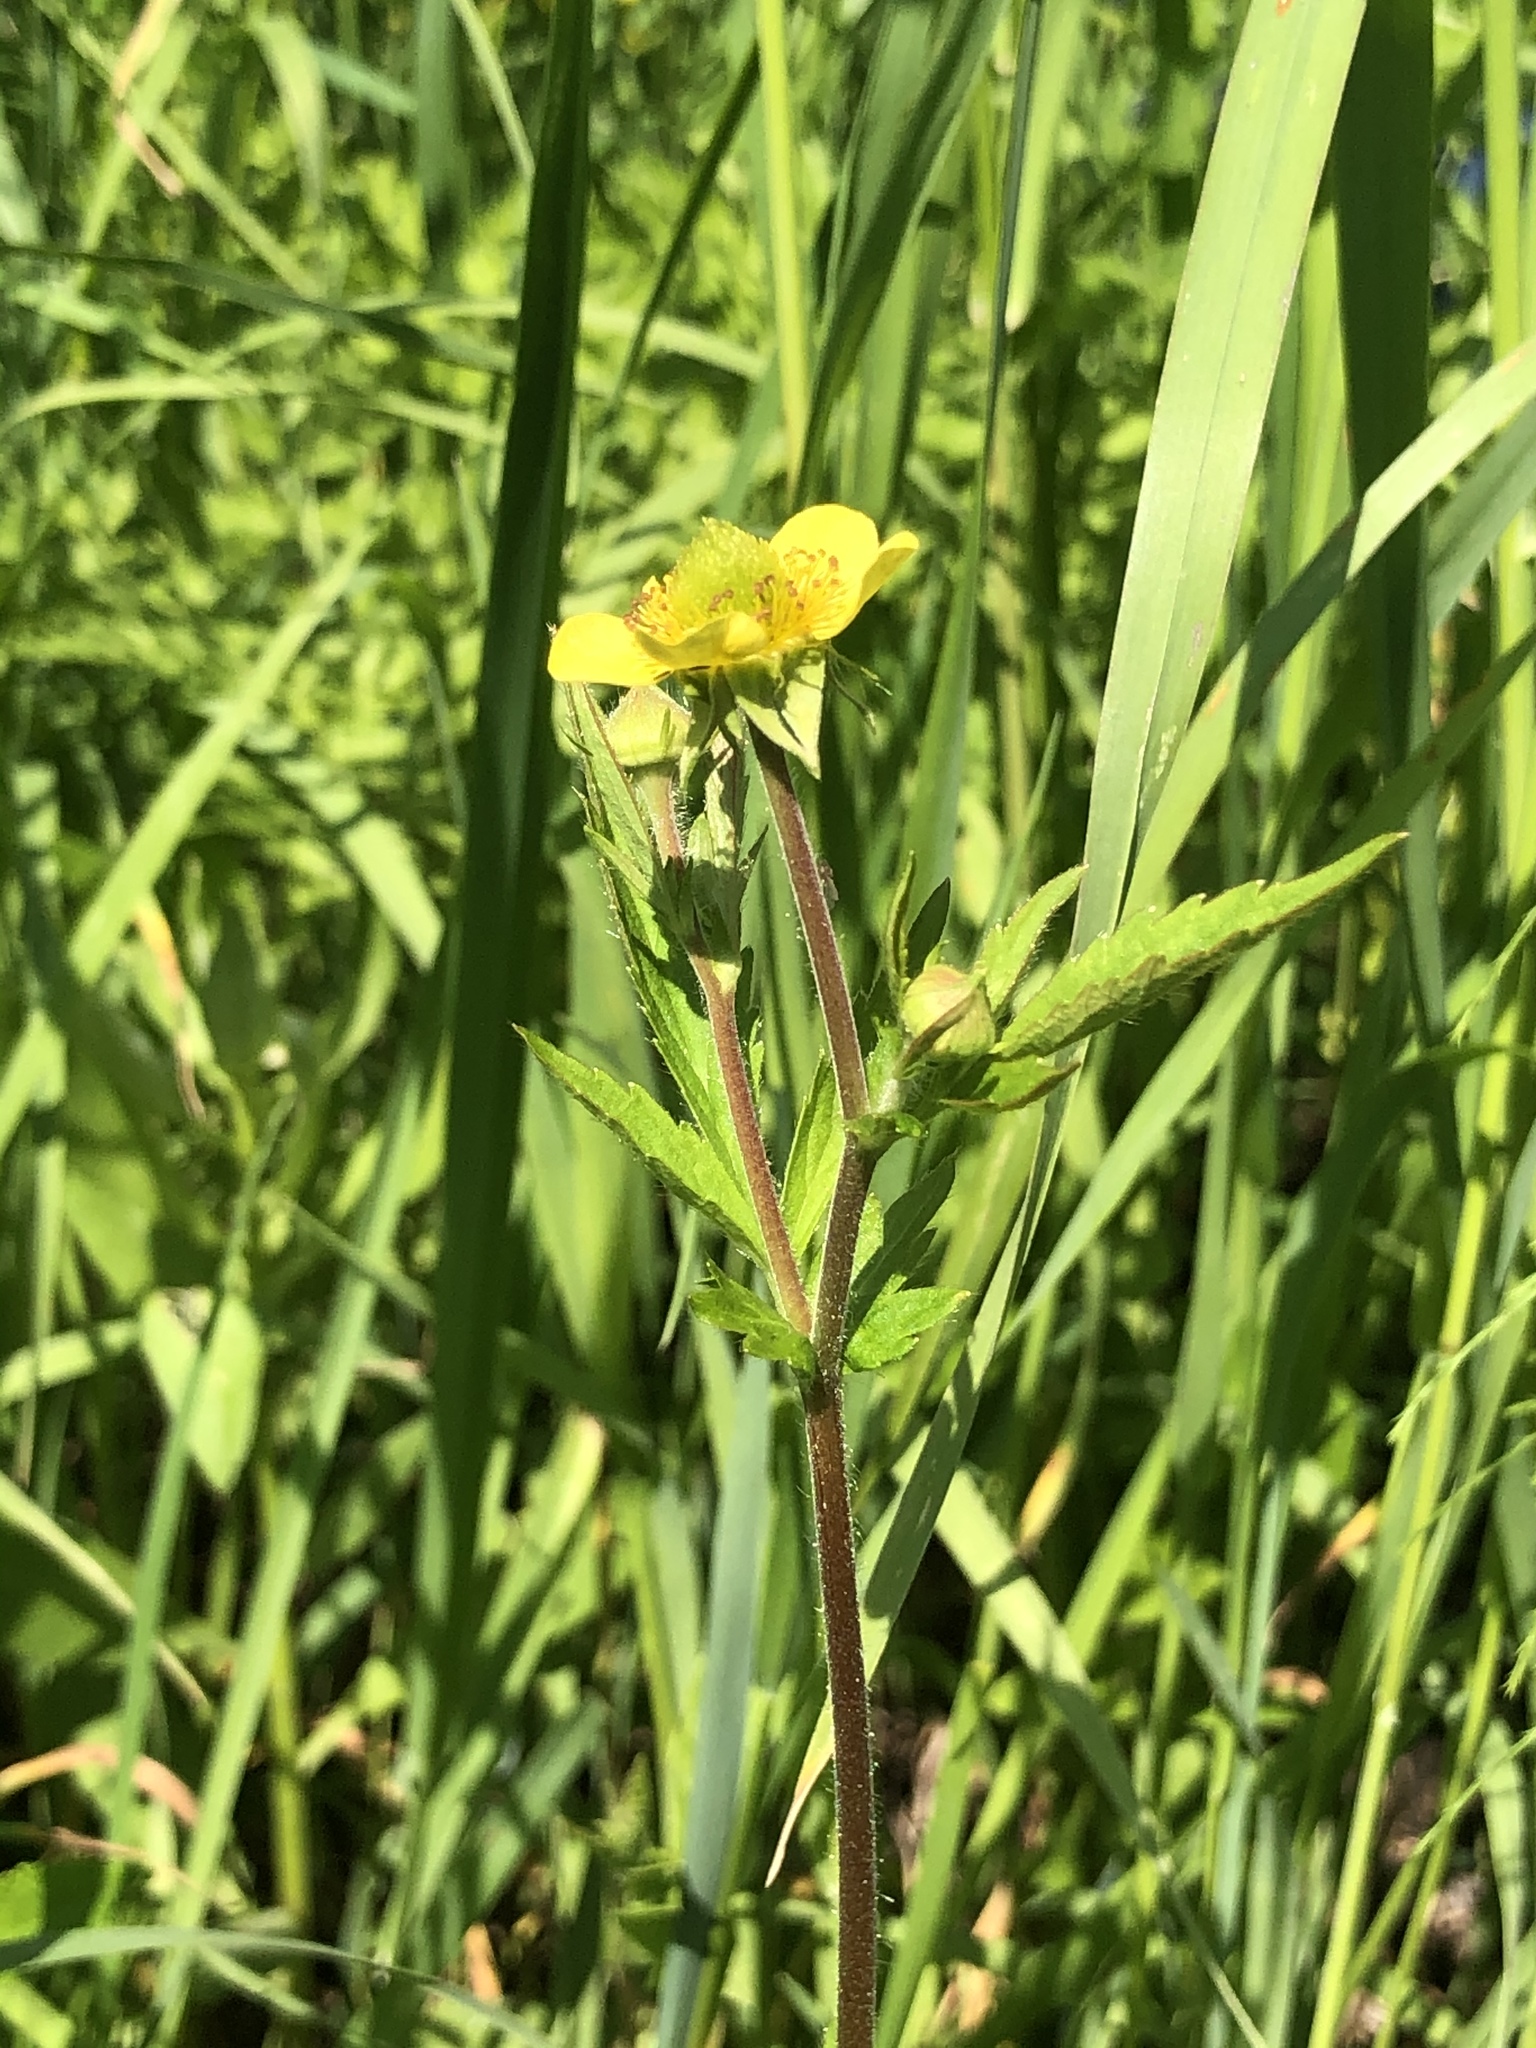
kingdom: Plantae
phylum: Tracheophyta
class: Magnoliopsida
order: Rosales
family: Rosaceae
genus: Geum
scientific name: Geum aleppicum
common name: Yellow avens
